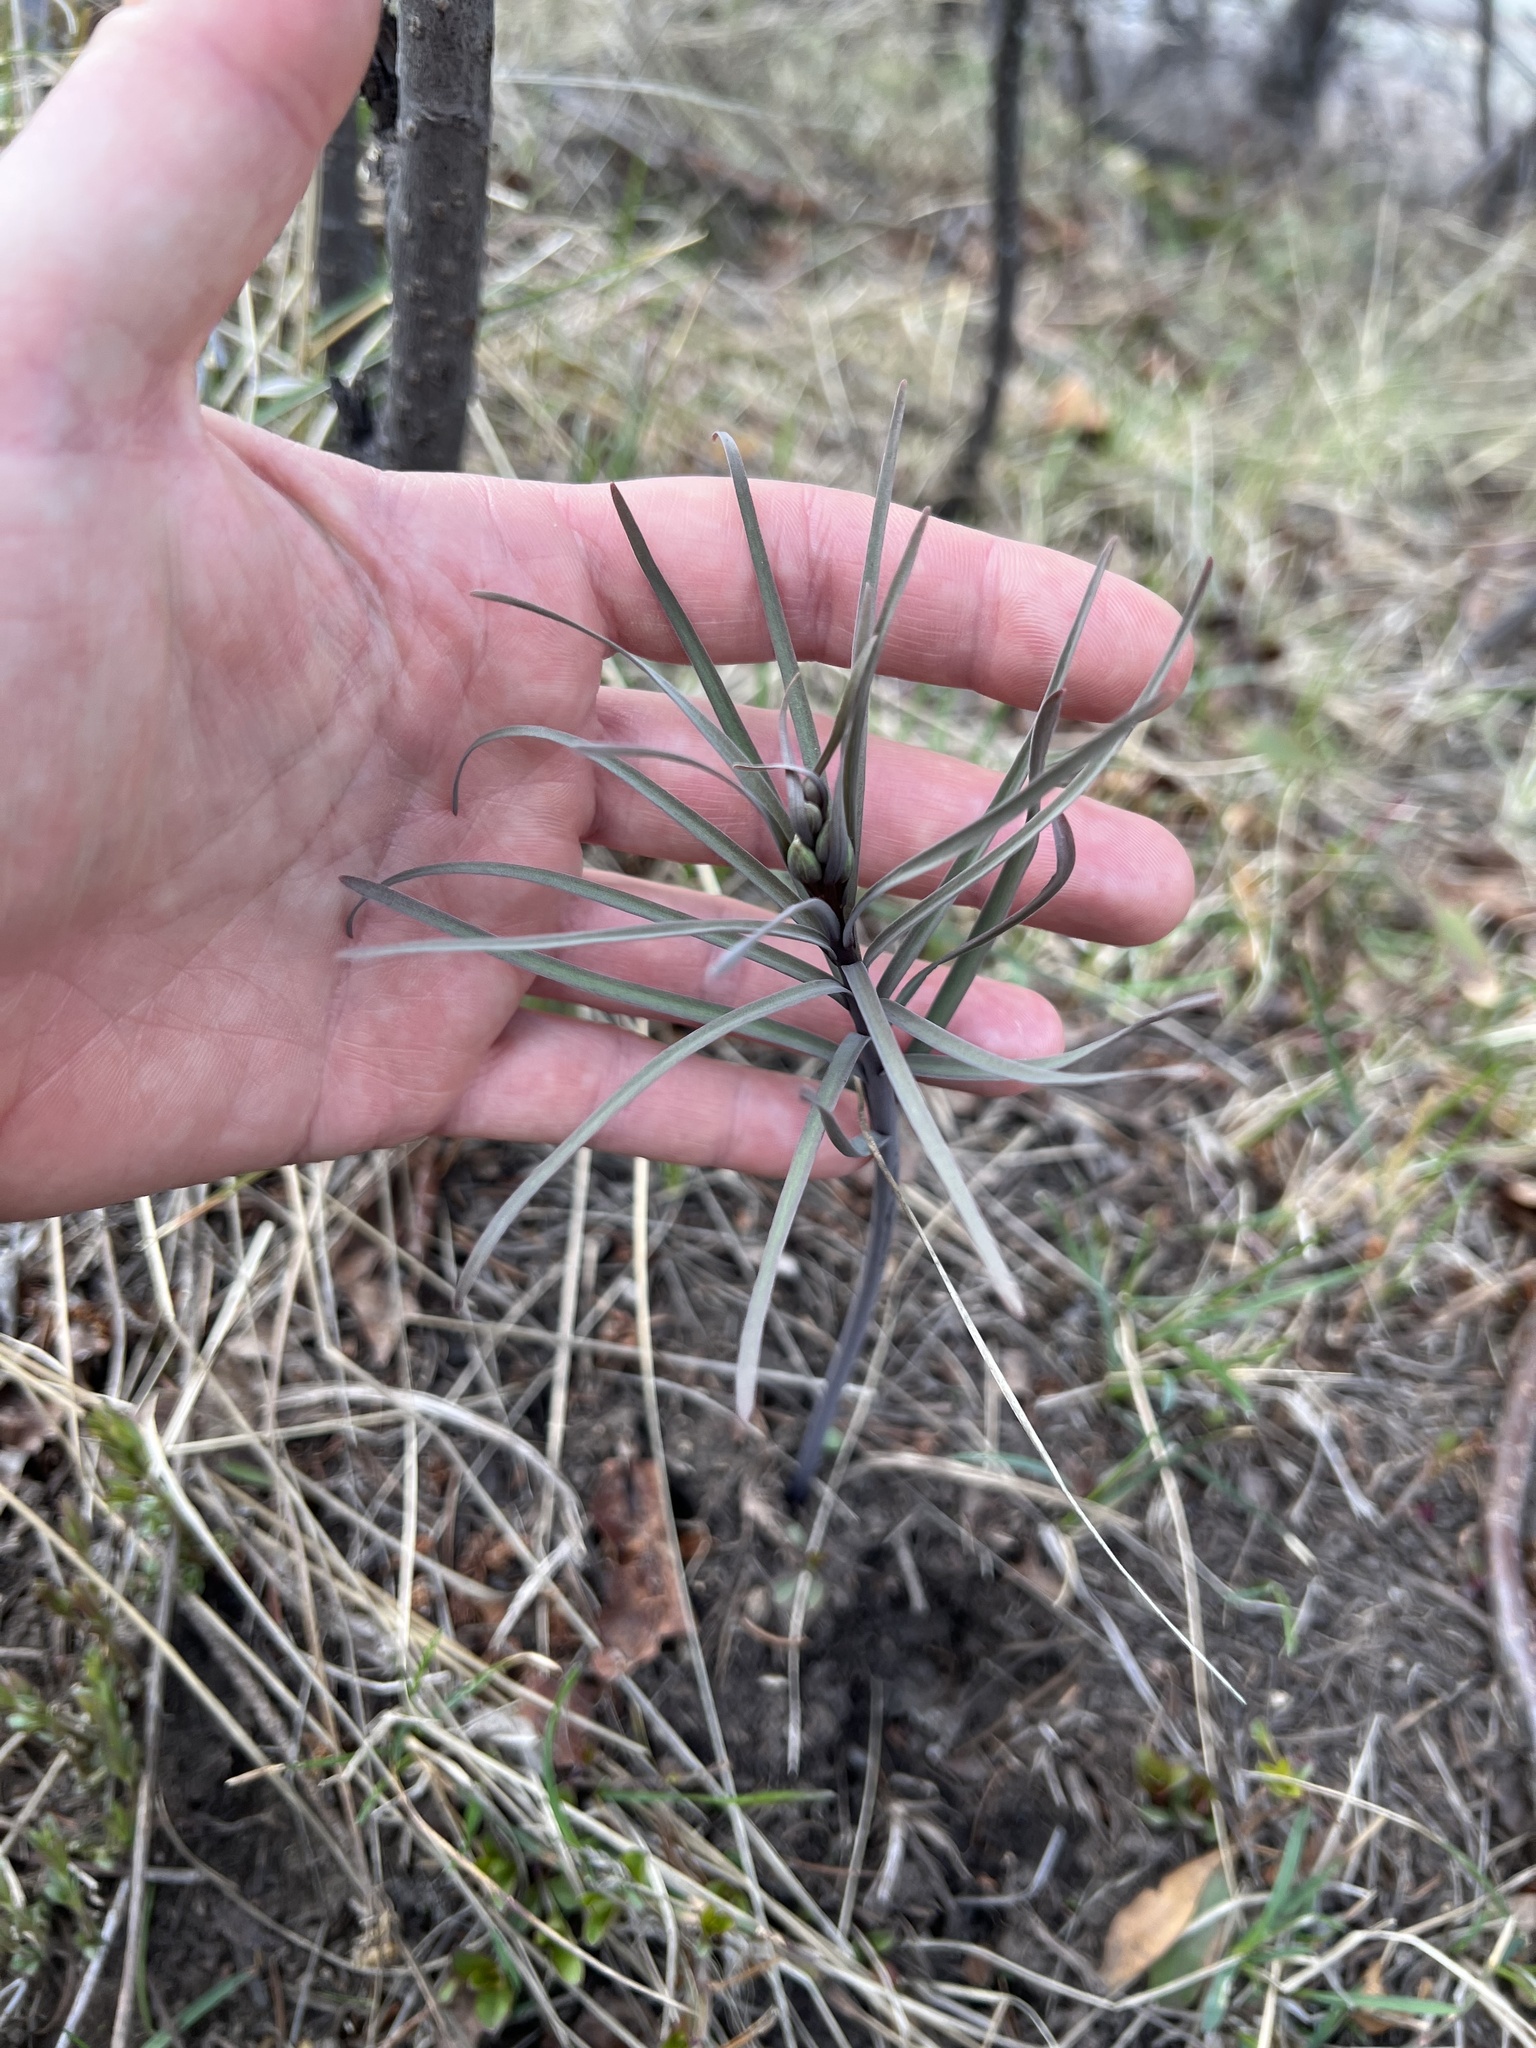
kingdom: Plantae
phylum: Tracheophyta
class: Liliopsida
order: Liliales
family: Liliaceae
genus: Fritillaria
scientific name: Fritillaria atropurpurea
